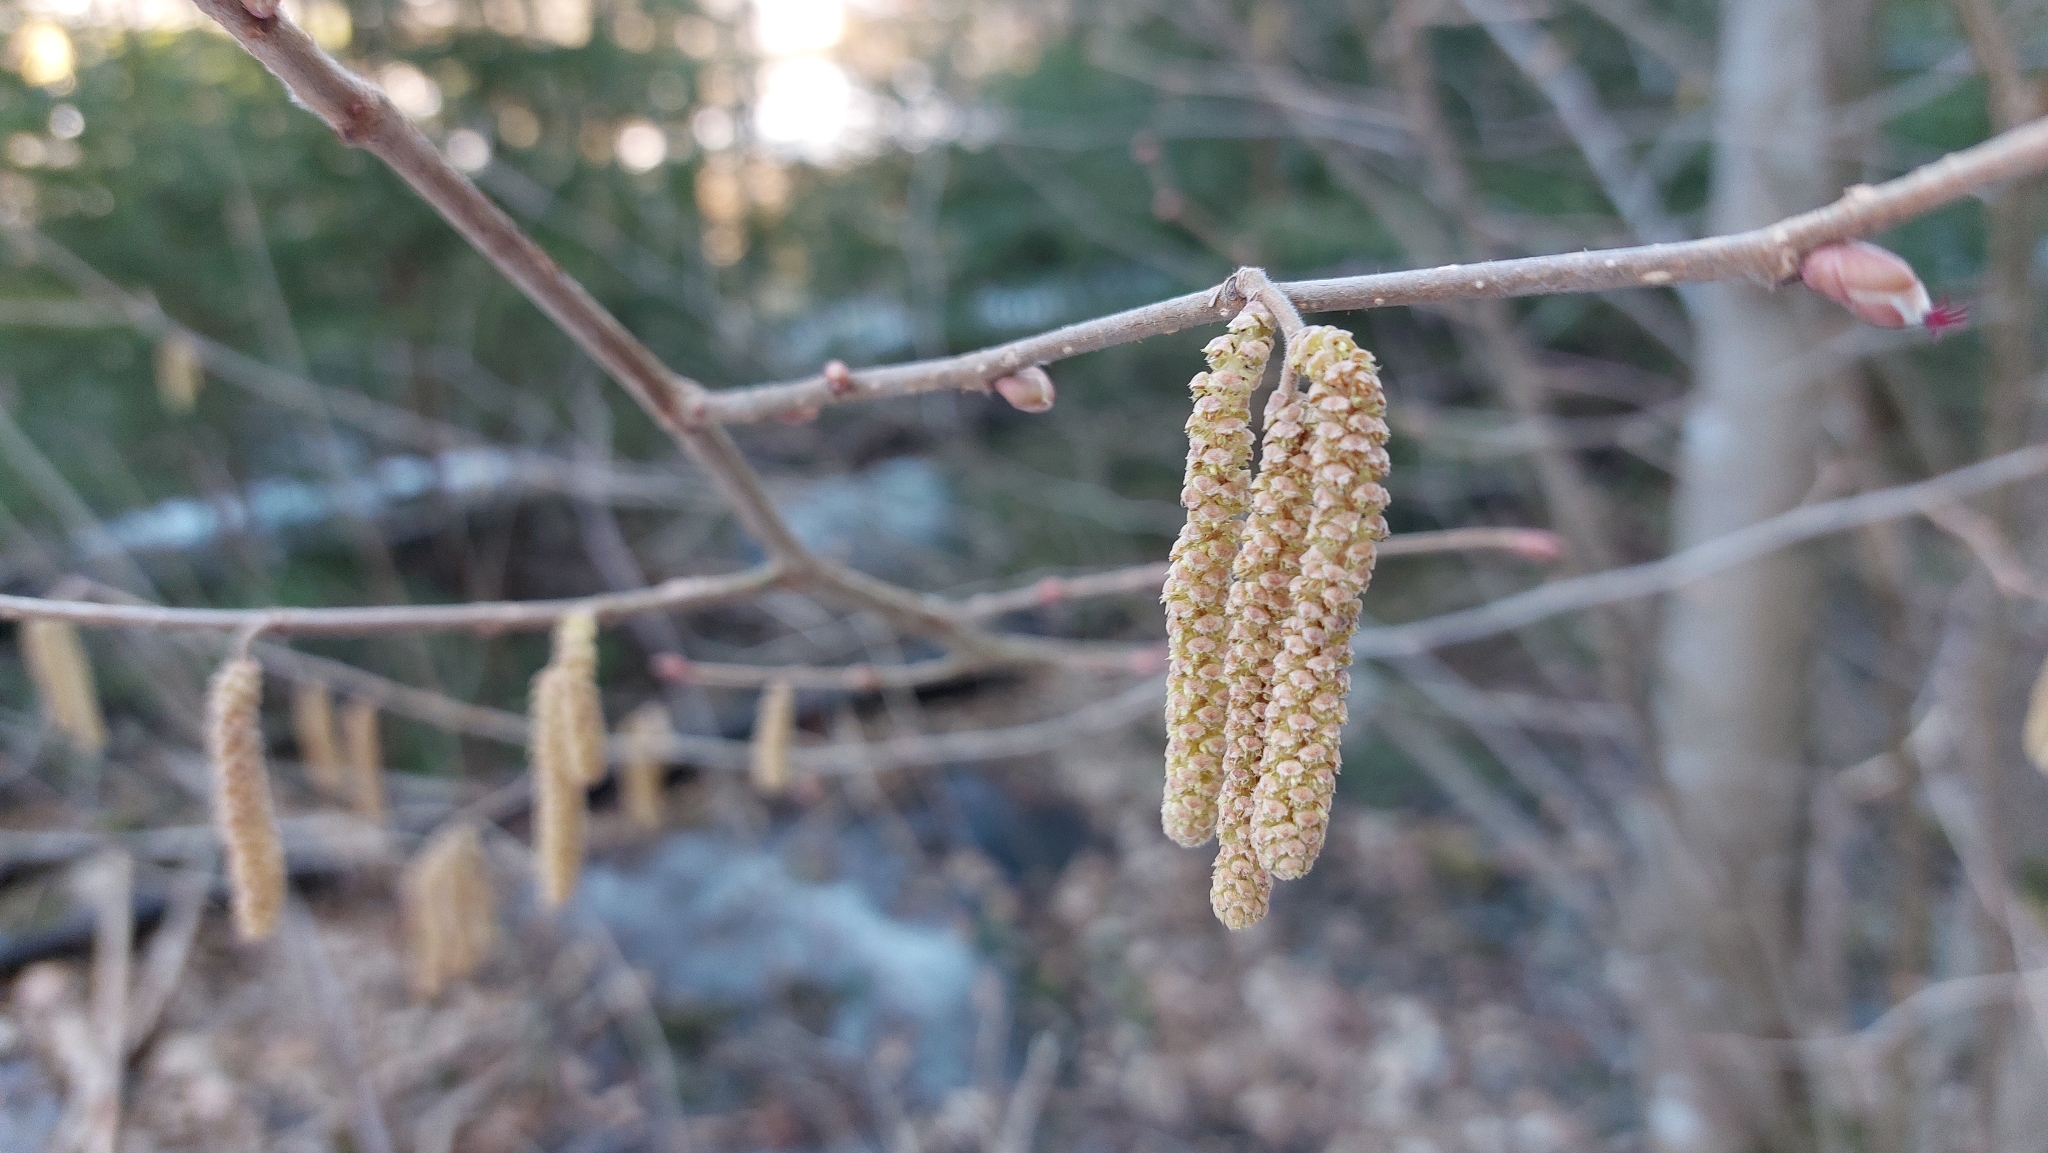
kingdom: Plantae
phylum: Tracheophyta
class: Magnoliopsida
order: Fagales
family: Betulaceae
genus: Corylus
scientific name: Corylus avellana
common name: European hazel
